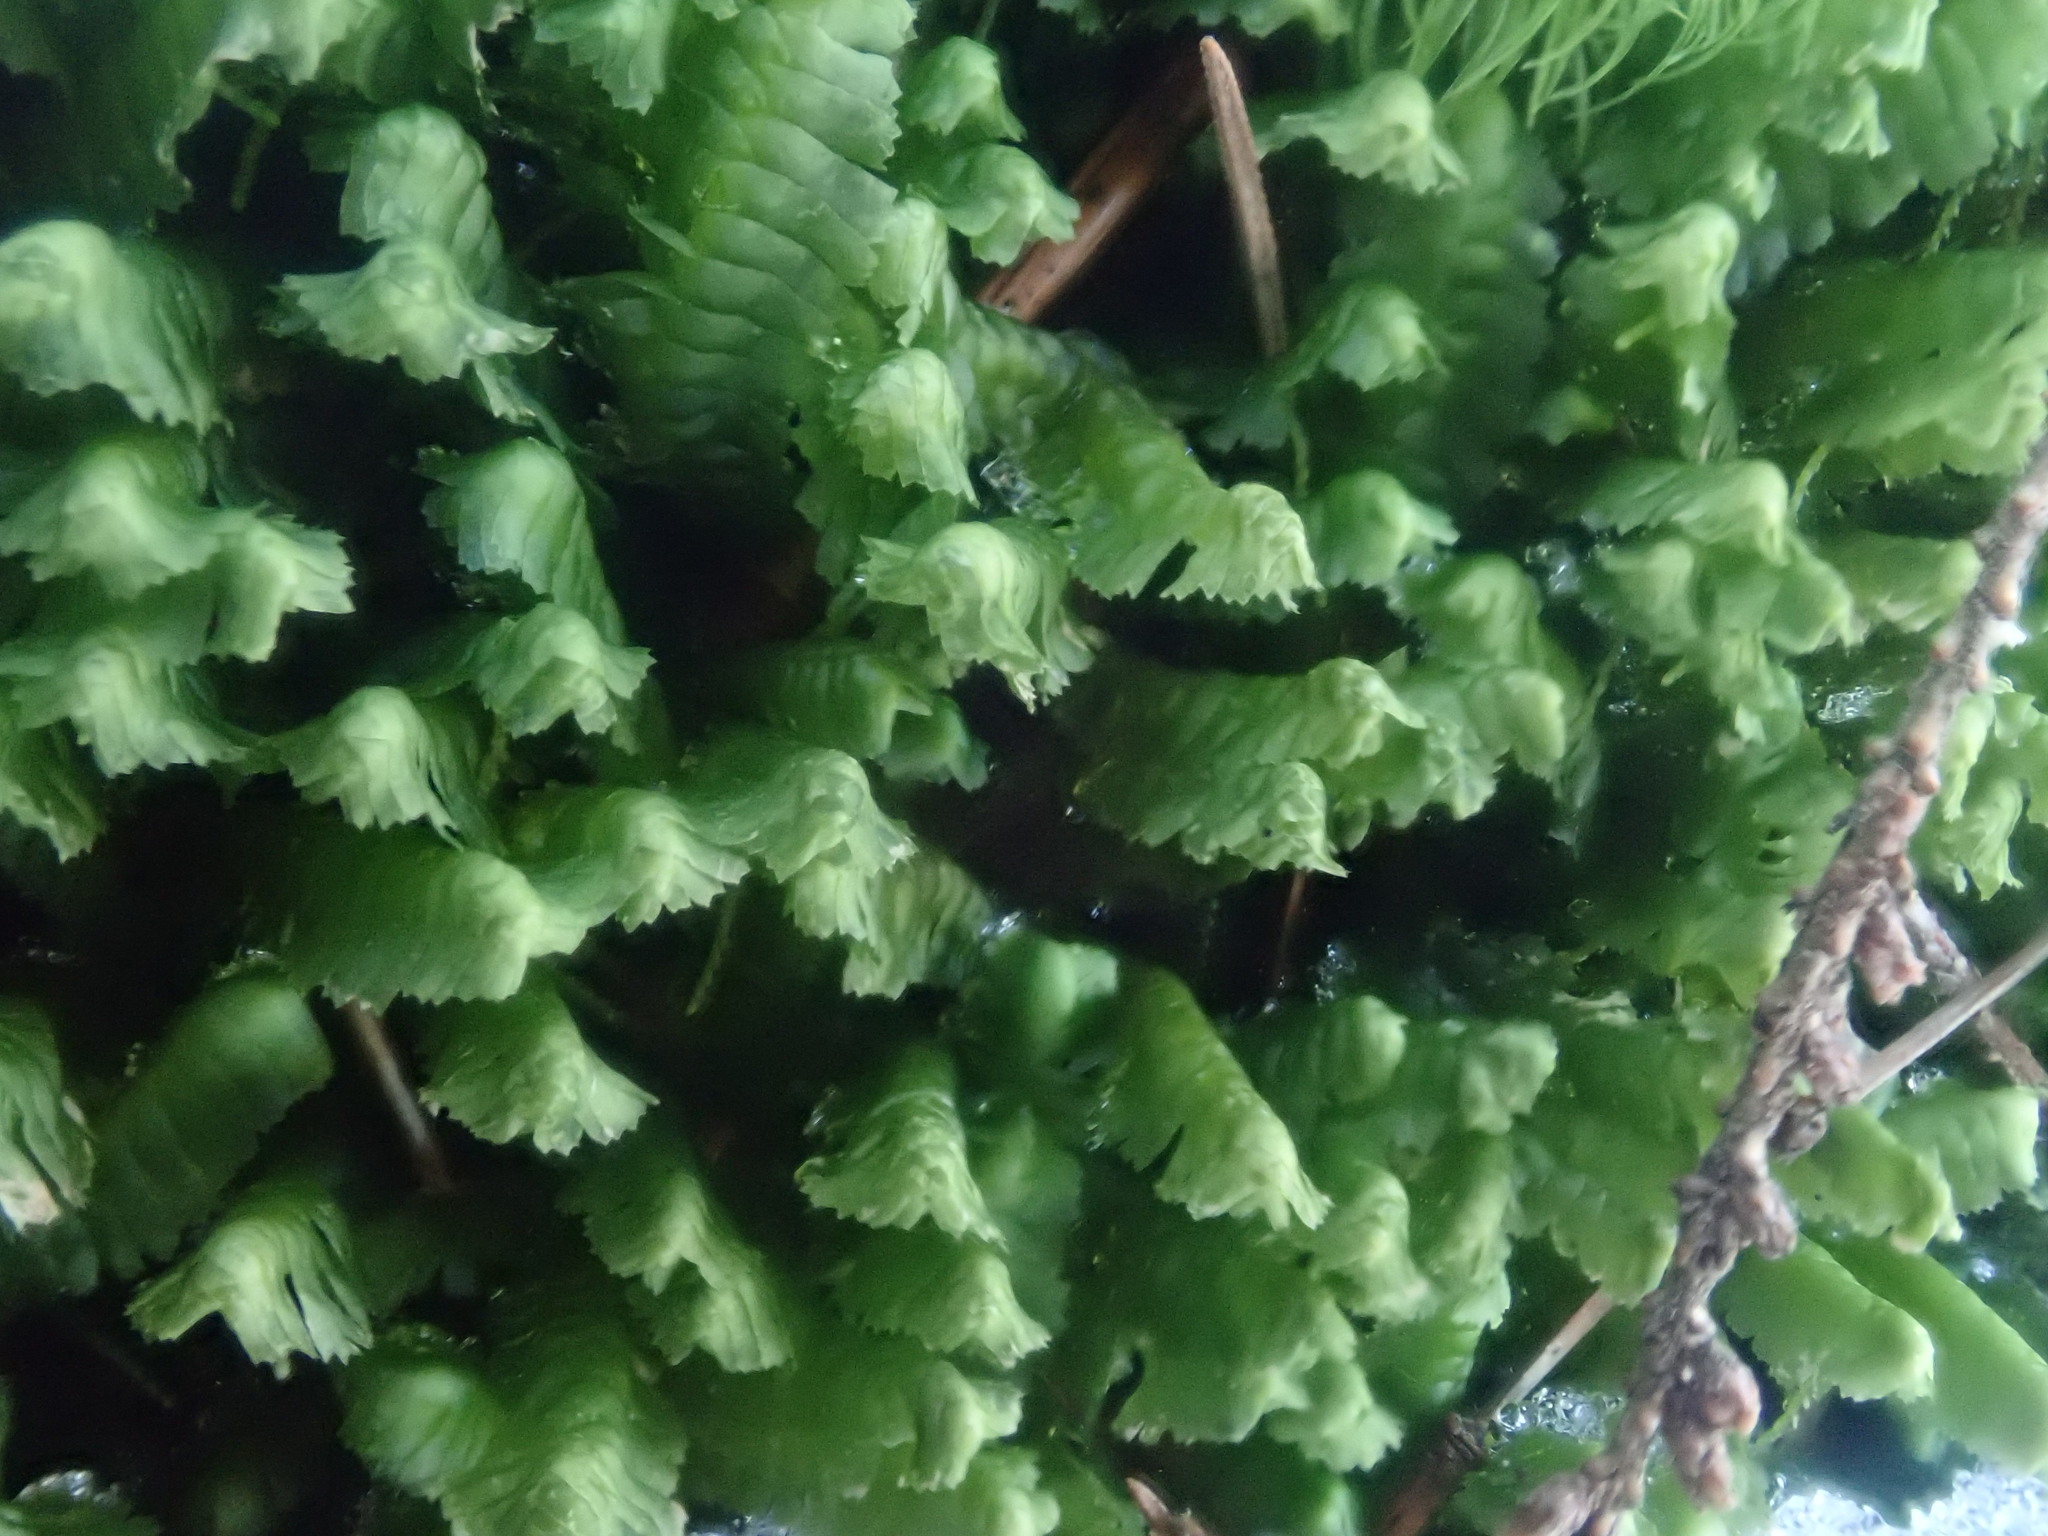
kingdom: Plantae
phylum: Marchantiophyta
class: Jungermanniopsida
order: Jungermanniales
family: Lepidoziaceae
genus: Bazzania
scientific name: Bazzania trilobata
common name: Three-lobed whipwort
